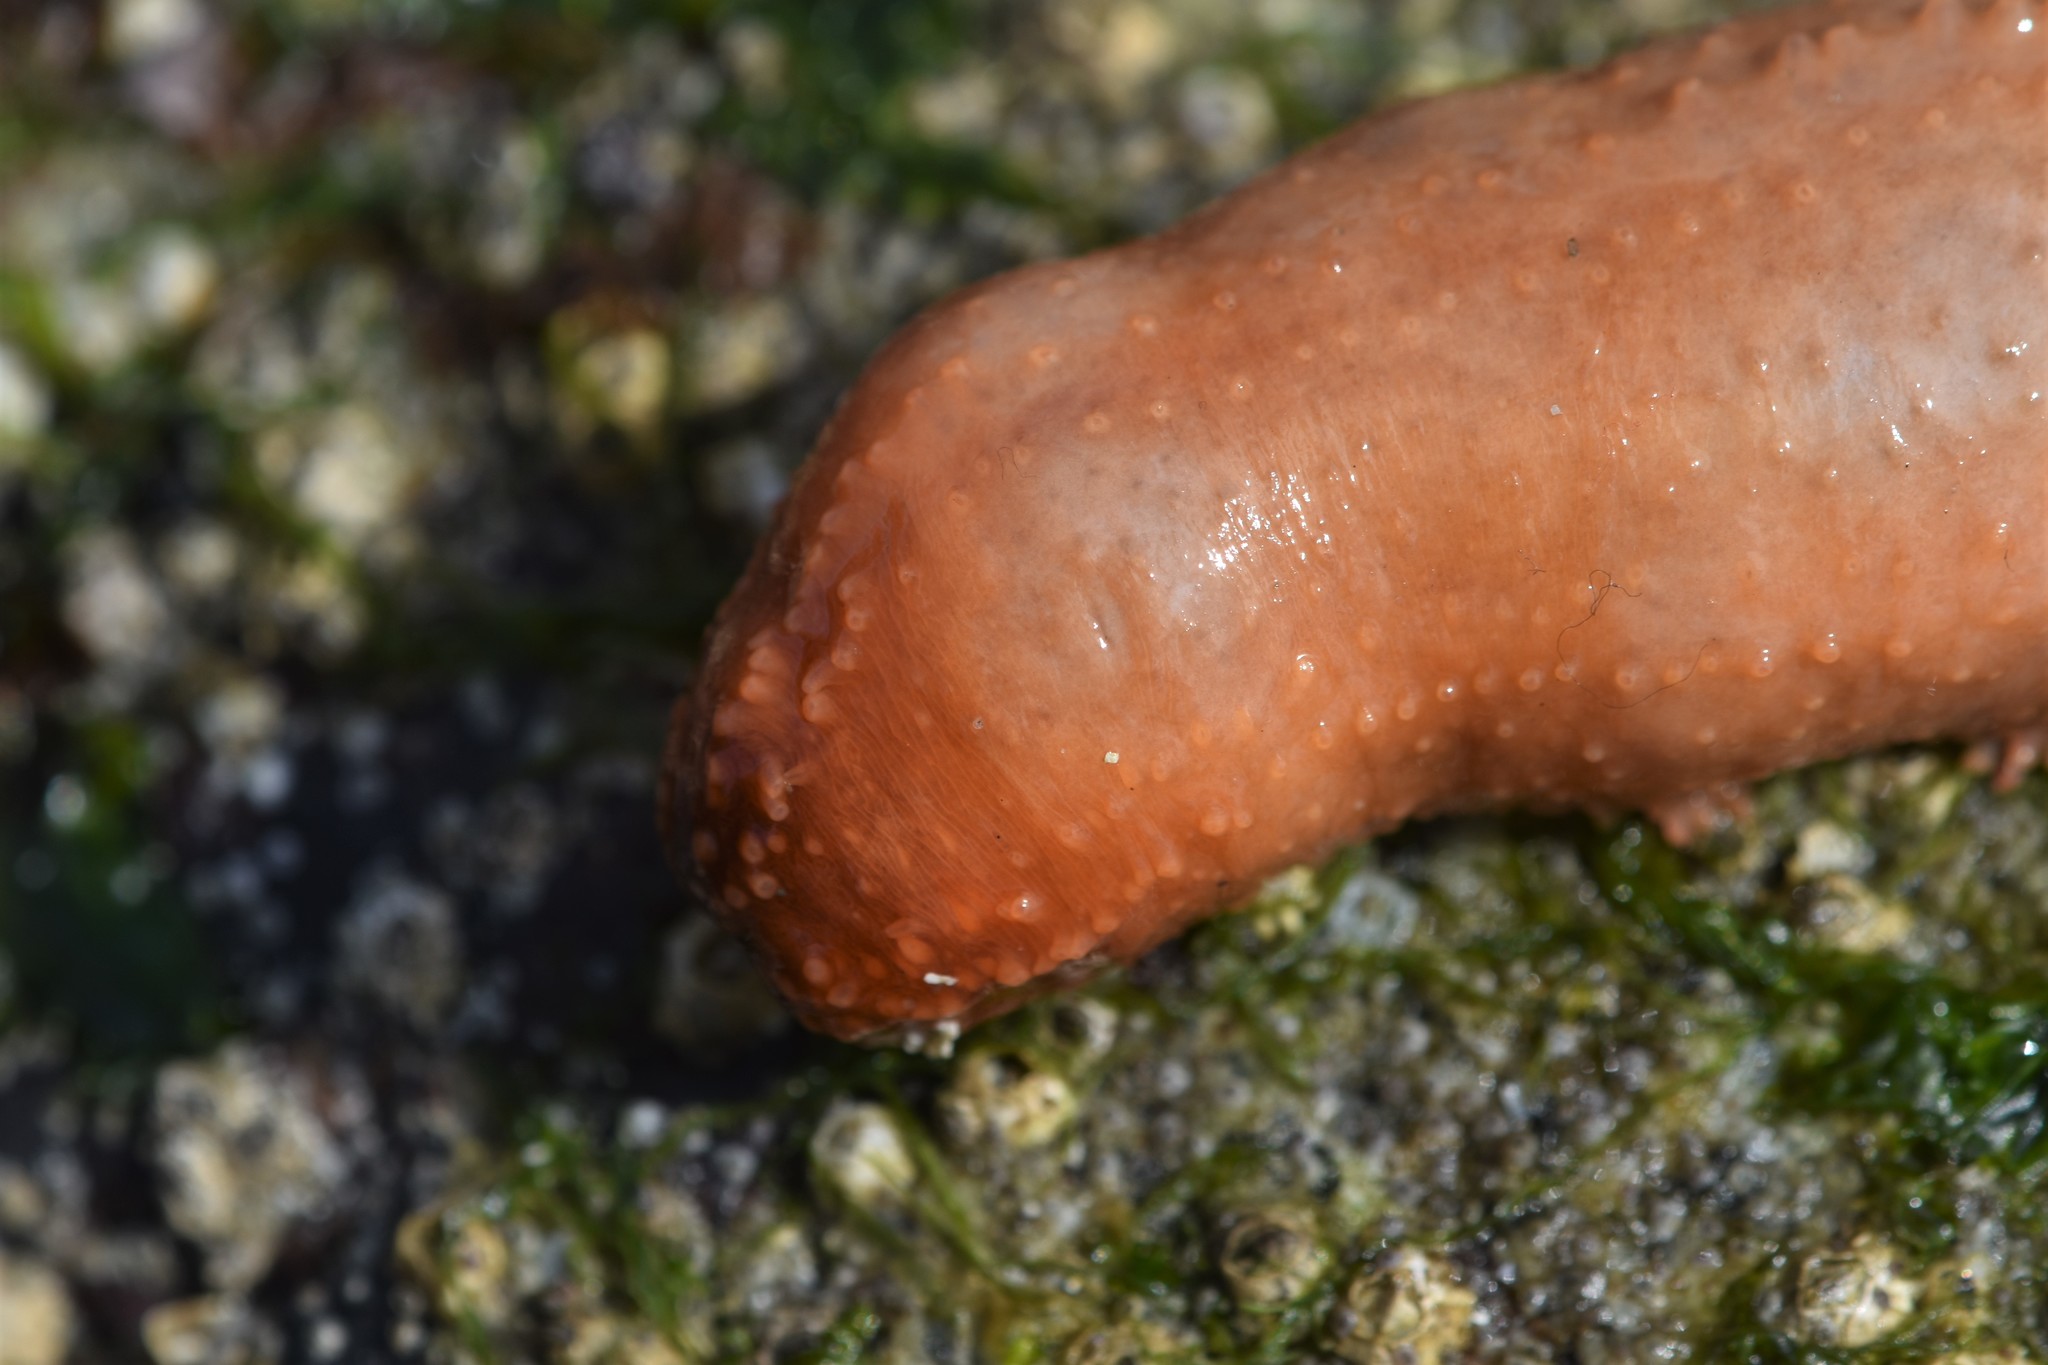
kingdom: Animalia
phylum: Echinodermata
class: Holothuroidea
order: Dendrochirotida
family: Cucumariidae
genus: Cucumaria
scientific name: Cucumaria miniata
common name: Orange sea cucumber
